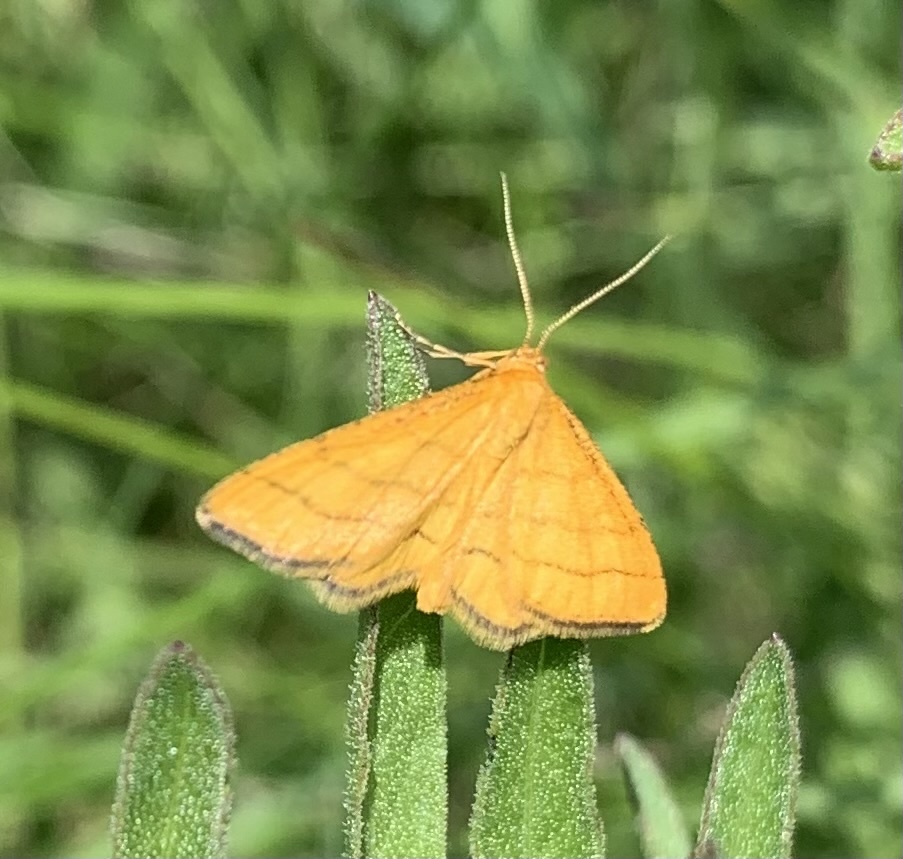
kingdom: Animalia
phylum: Arthropoda
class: Insecta
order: Lepidoptera
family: Geometridae
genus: Idaea
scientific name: Idaea aureolaria
